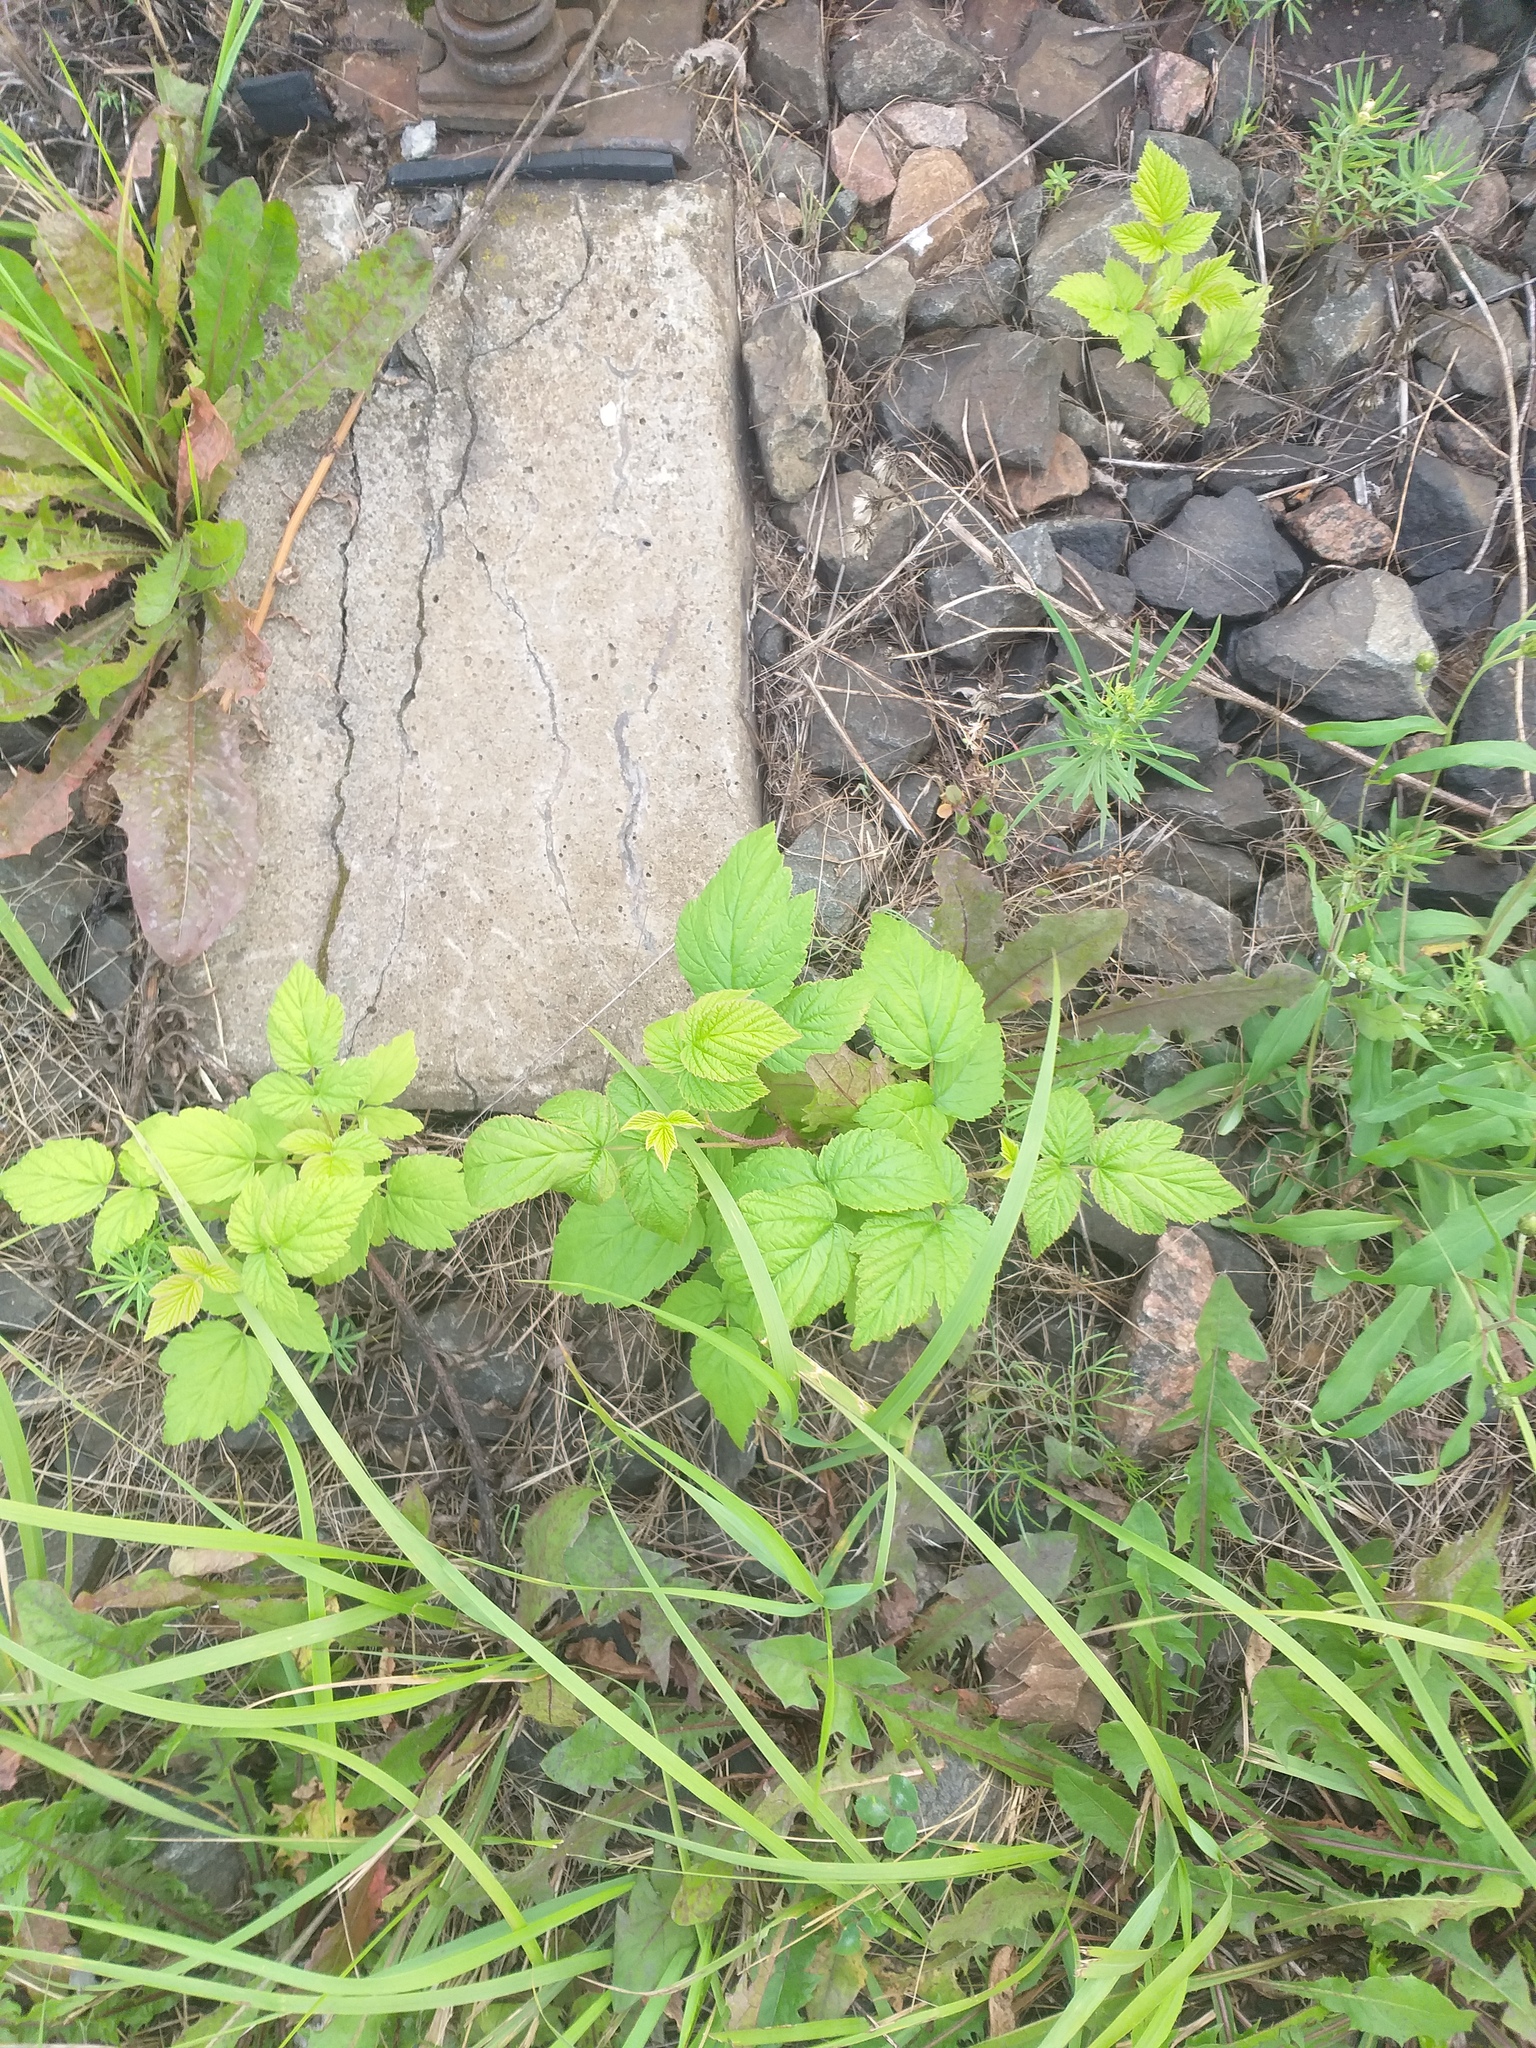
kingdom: Plantae
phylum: Tracheophyta
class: Magnoliopsida
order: Rosales
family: Rosaceae
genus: Rubus
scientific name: Rubus idaeus
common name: Raspberry
